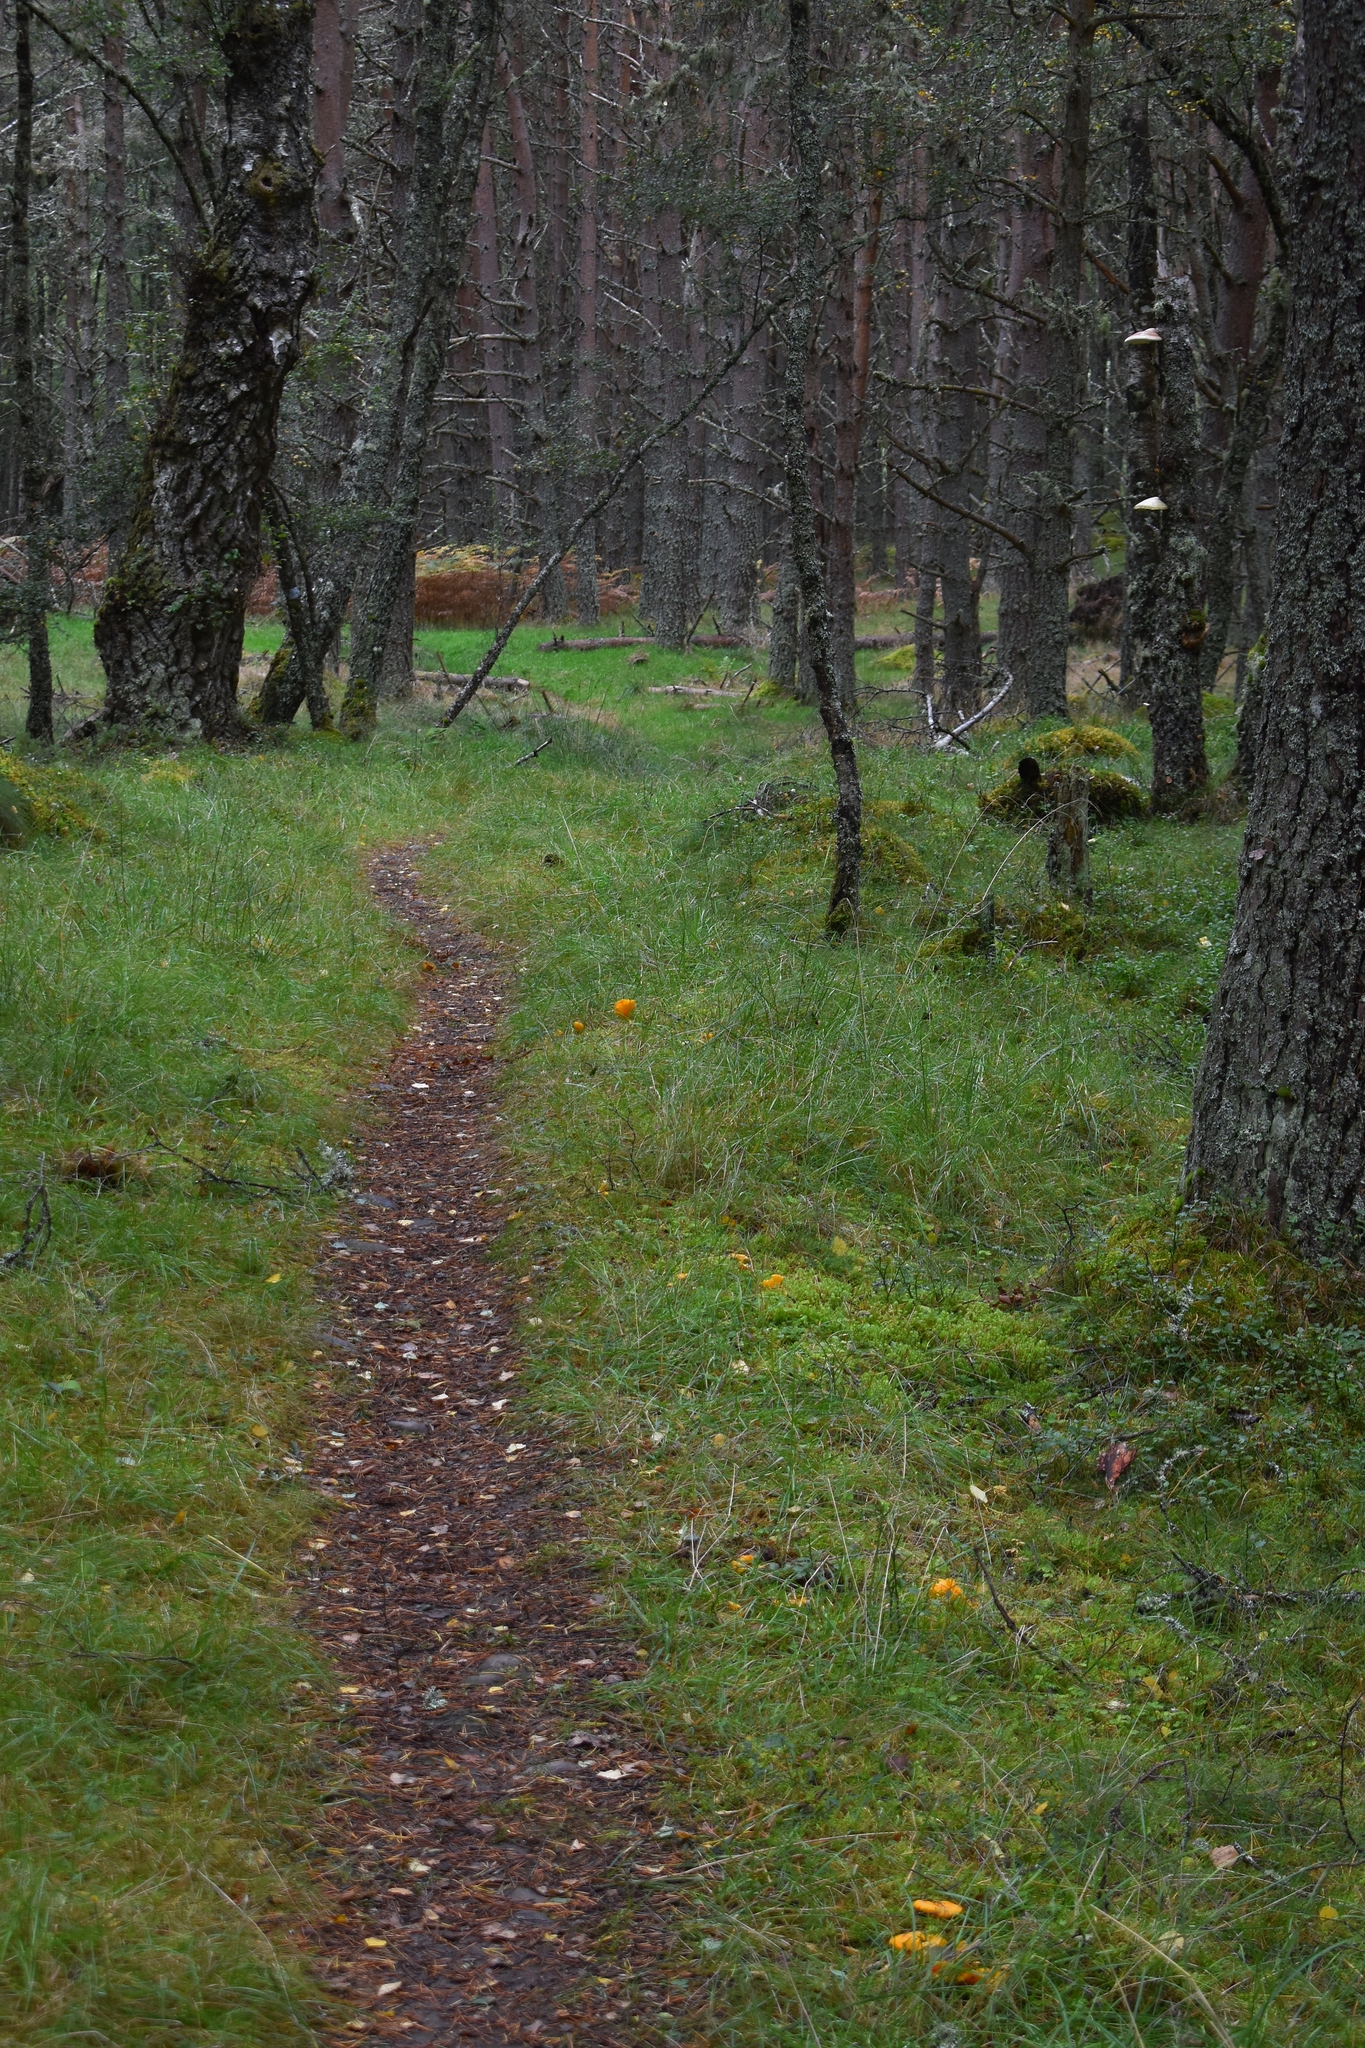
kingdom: Fungi
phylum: Basidiomycota
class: Agaricomycetes
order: Cantharellales
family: Hydnaceae
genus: Cantharellus
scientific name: Cantharellus cibarius
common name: Chanterelle
